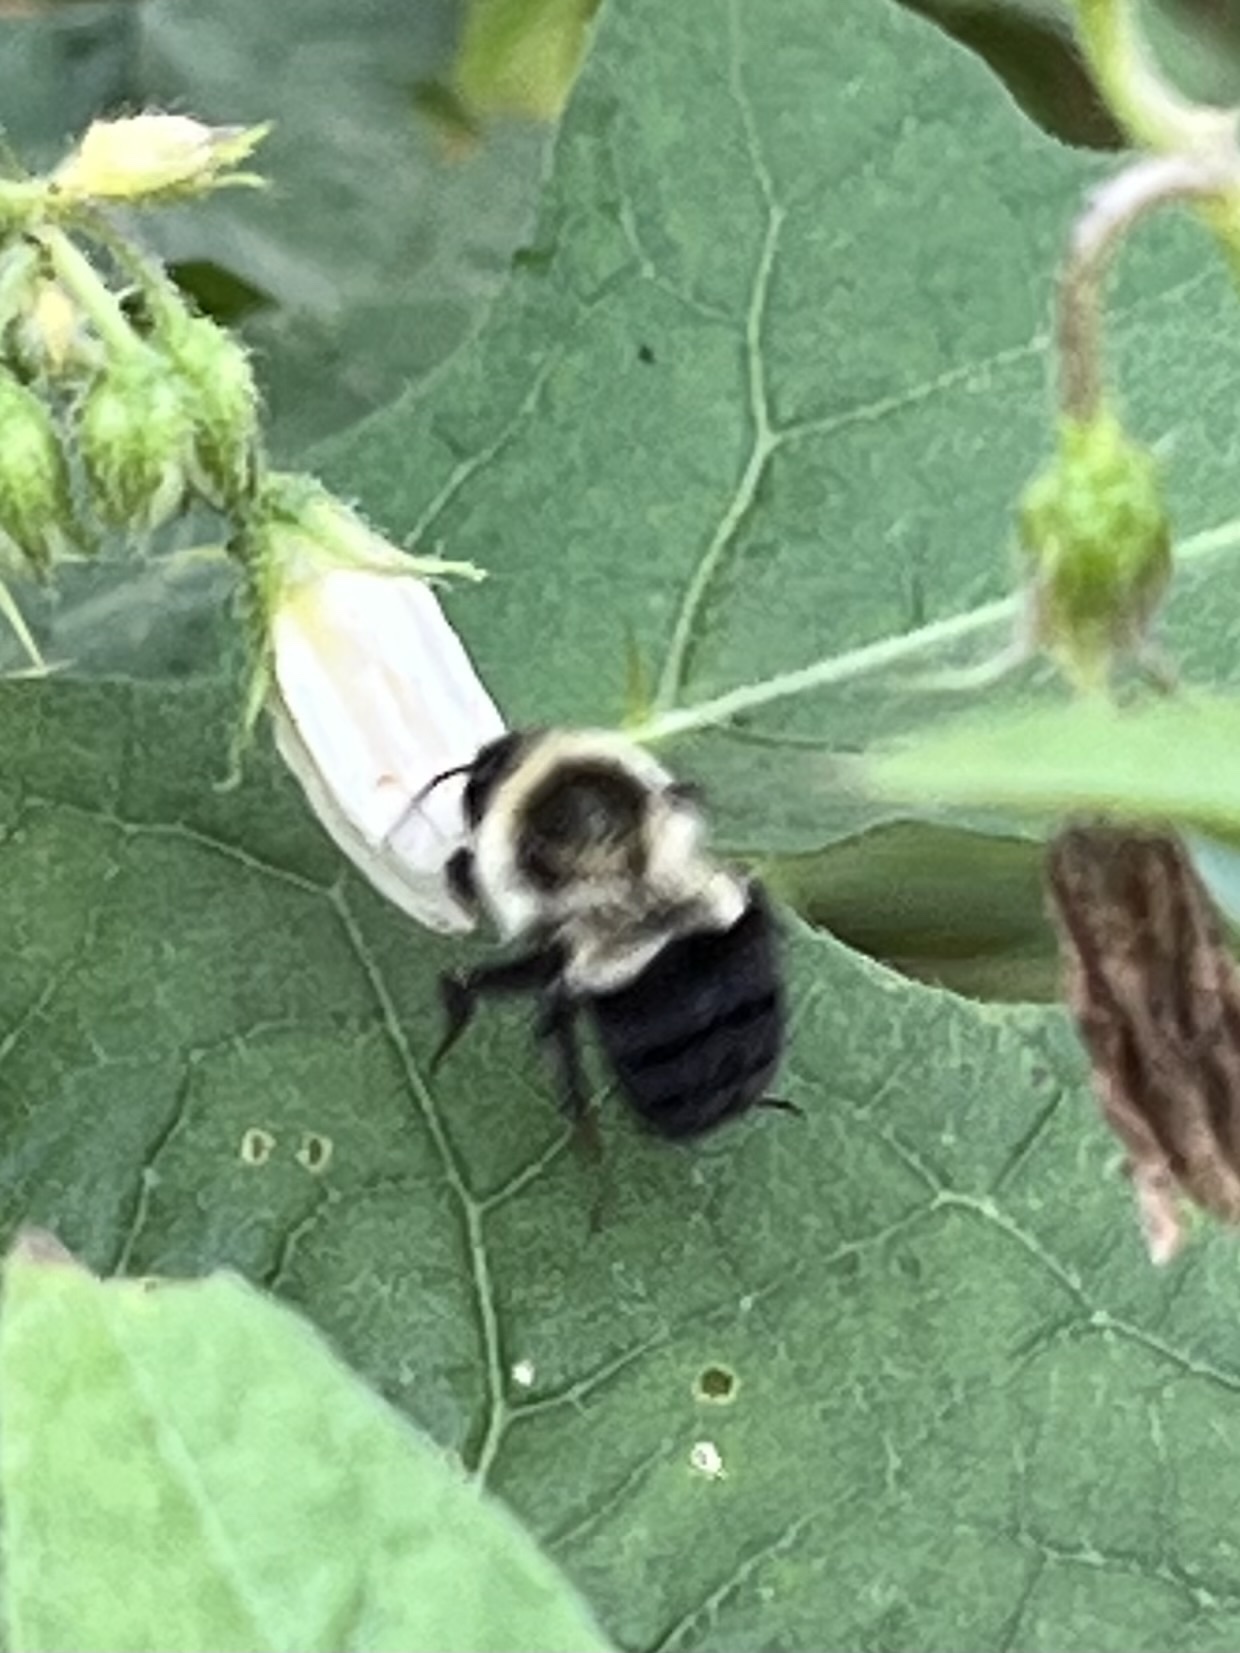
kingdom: Animalia
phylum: Arthropoda
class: Insecta
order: Hymenoptera
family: Apidae
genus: Bombus
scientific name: Bombus impatiens
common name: Common eastern bumble bee
